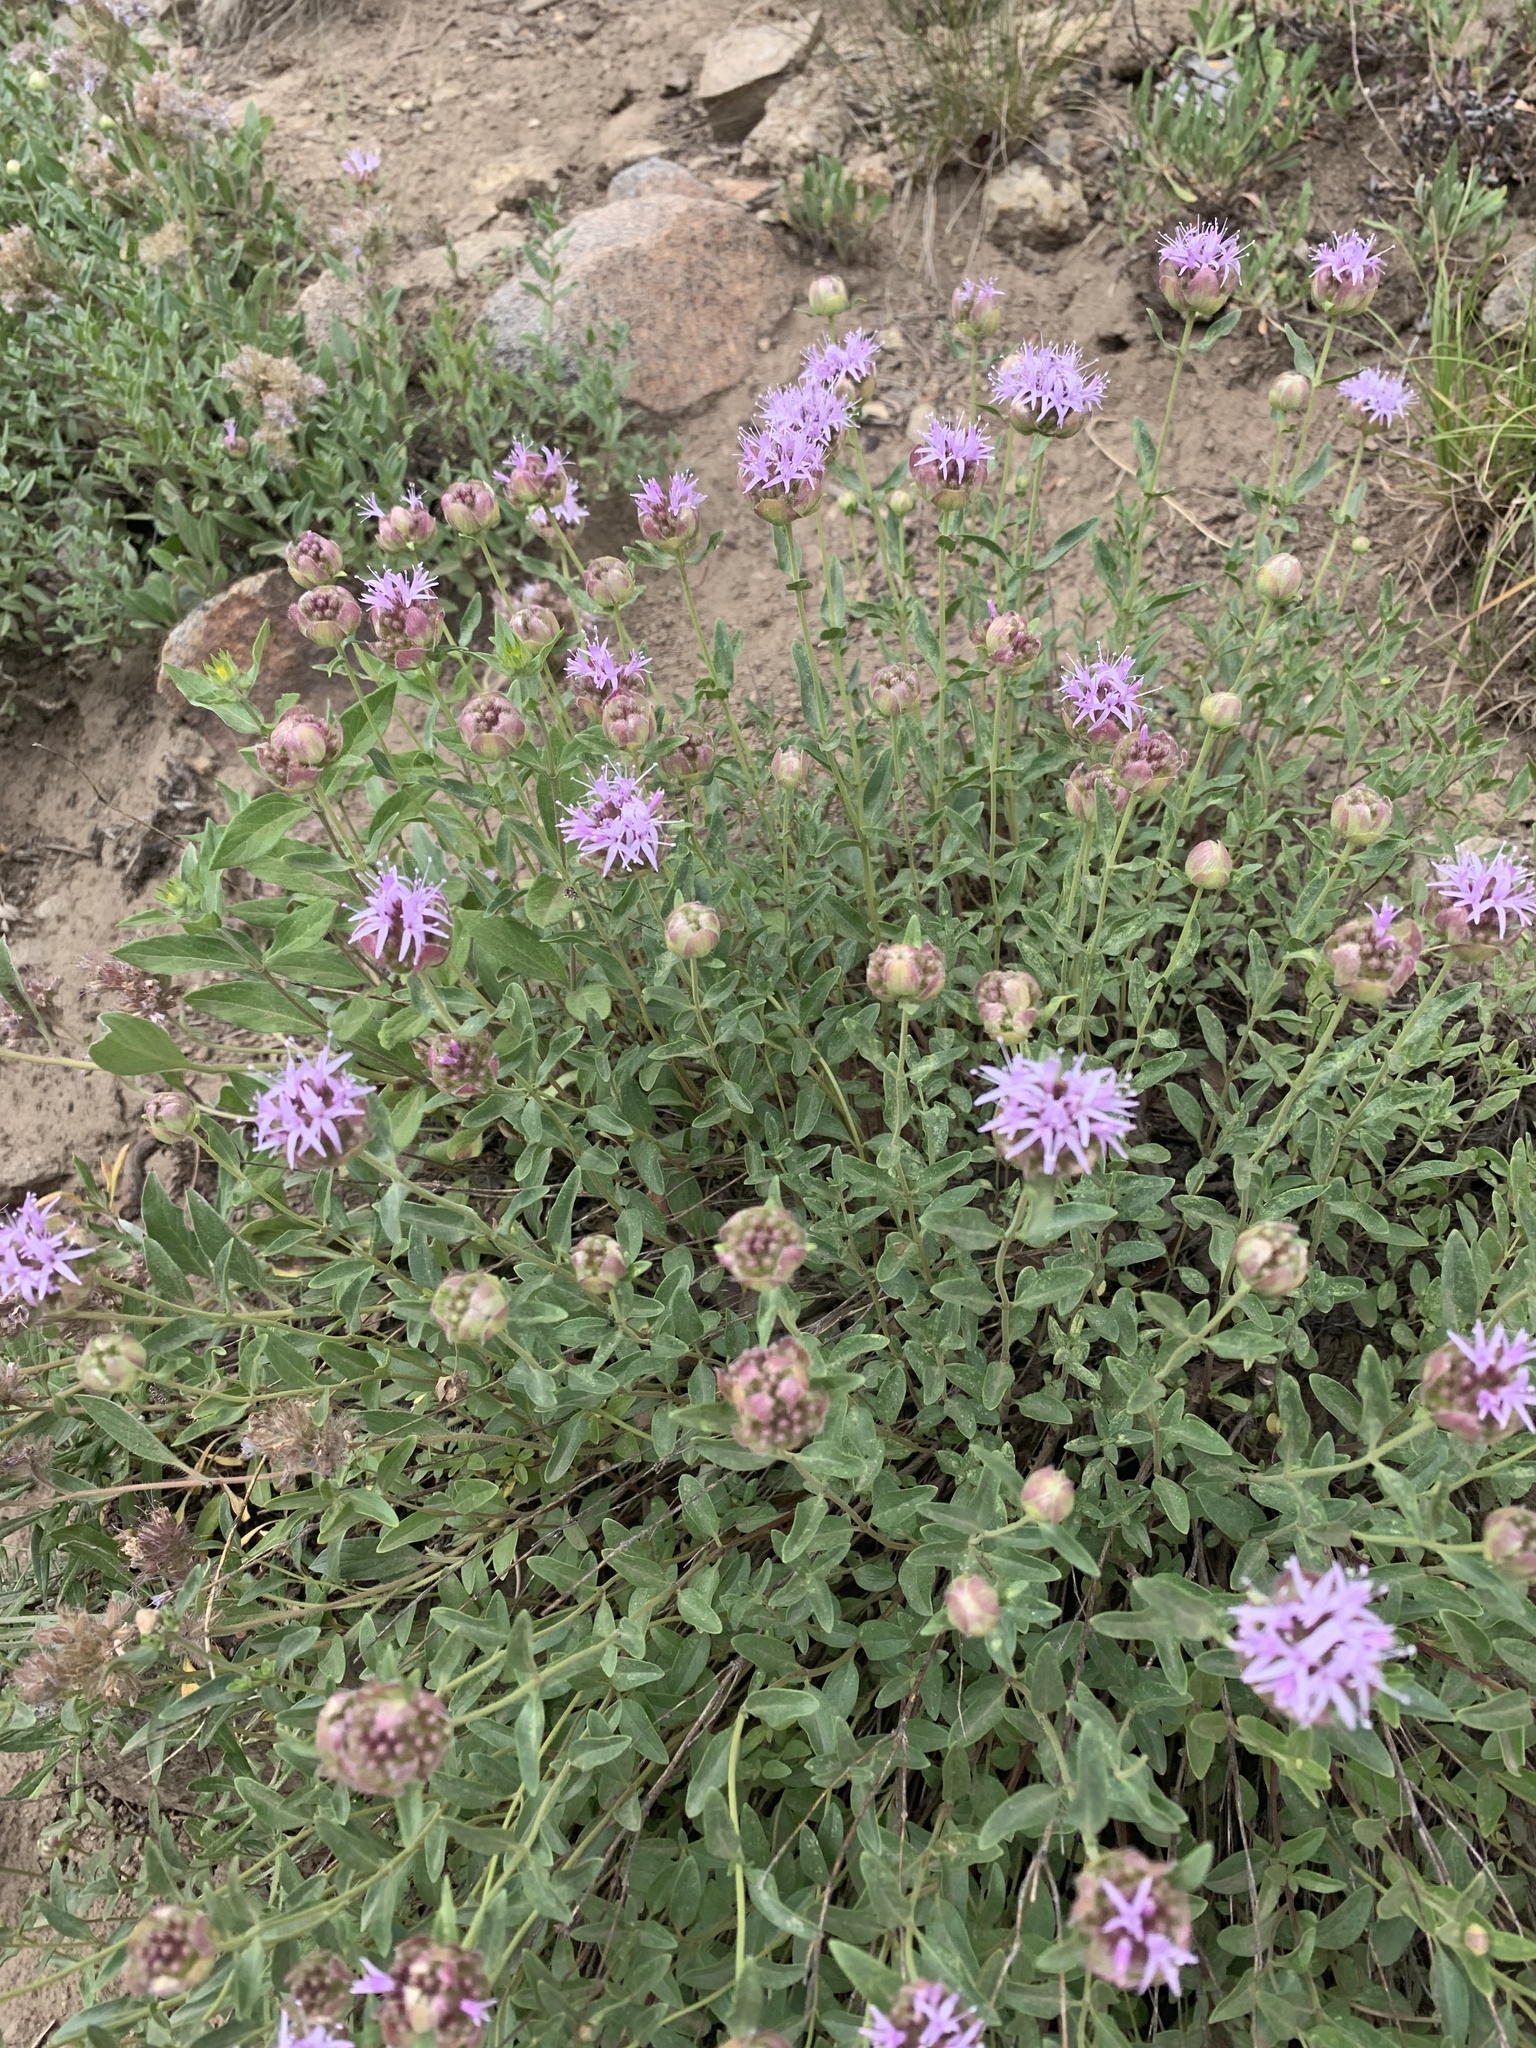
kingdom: Plantae
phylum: Tracheophyta
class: Magnoliopsida
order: Lamiales
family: Lamiaceae
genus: Monardella
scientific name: Monardella odoratissima
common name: Pacific monardella
